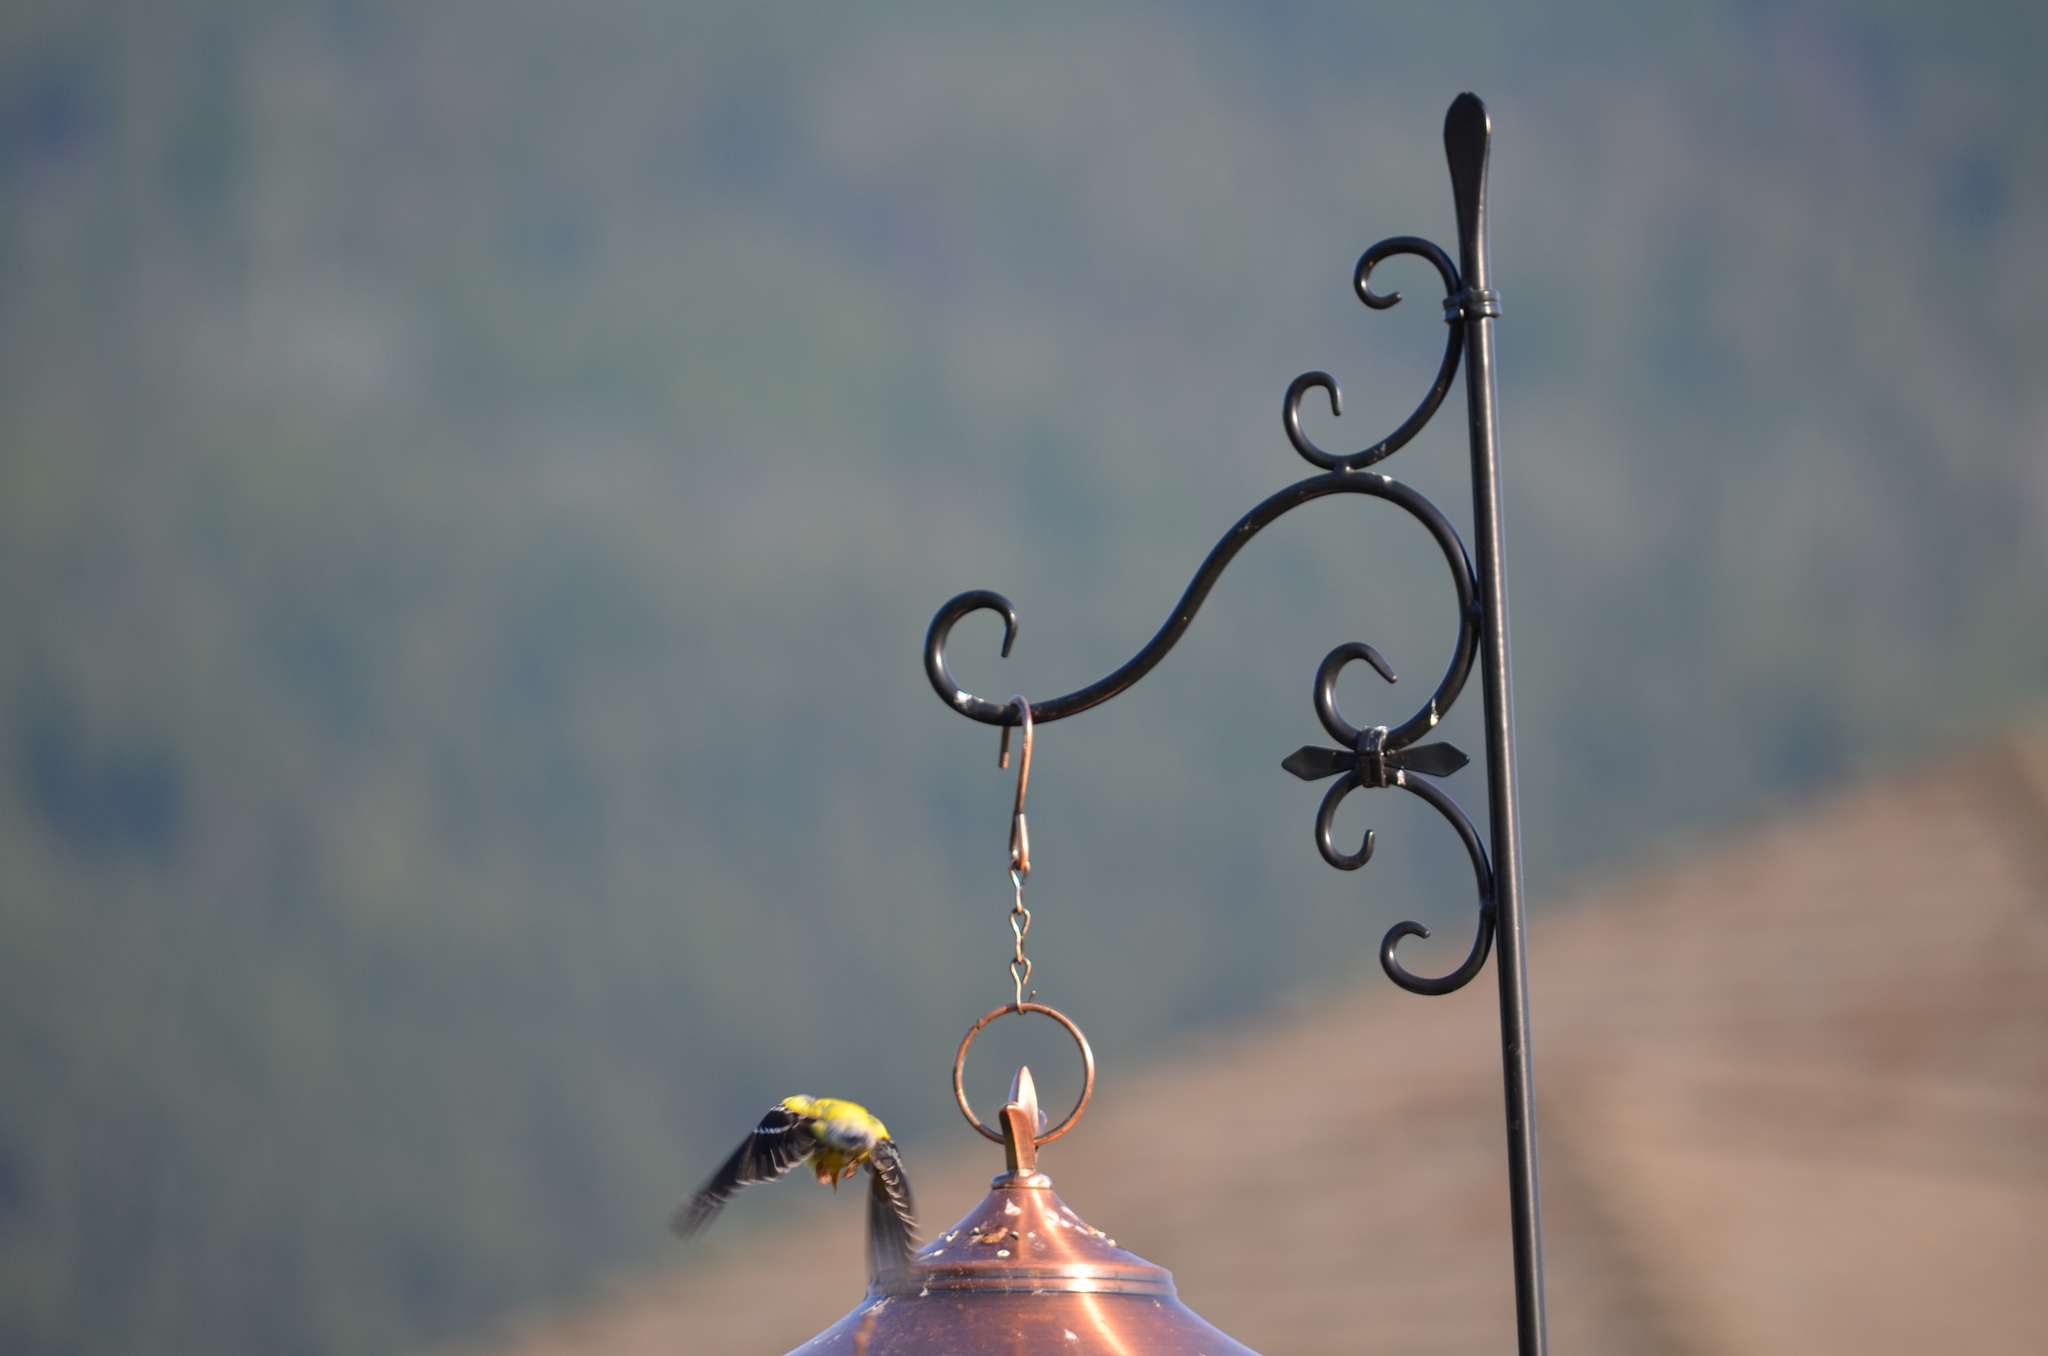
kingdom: Animalia
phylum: Chordata
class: Aves
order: Passeriformes
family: Fringillidae
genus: Spinus
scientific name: Spinus tristis
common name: American goldfinch
